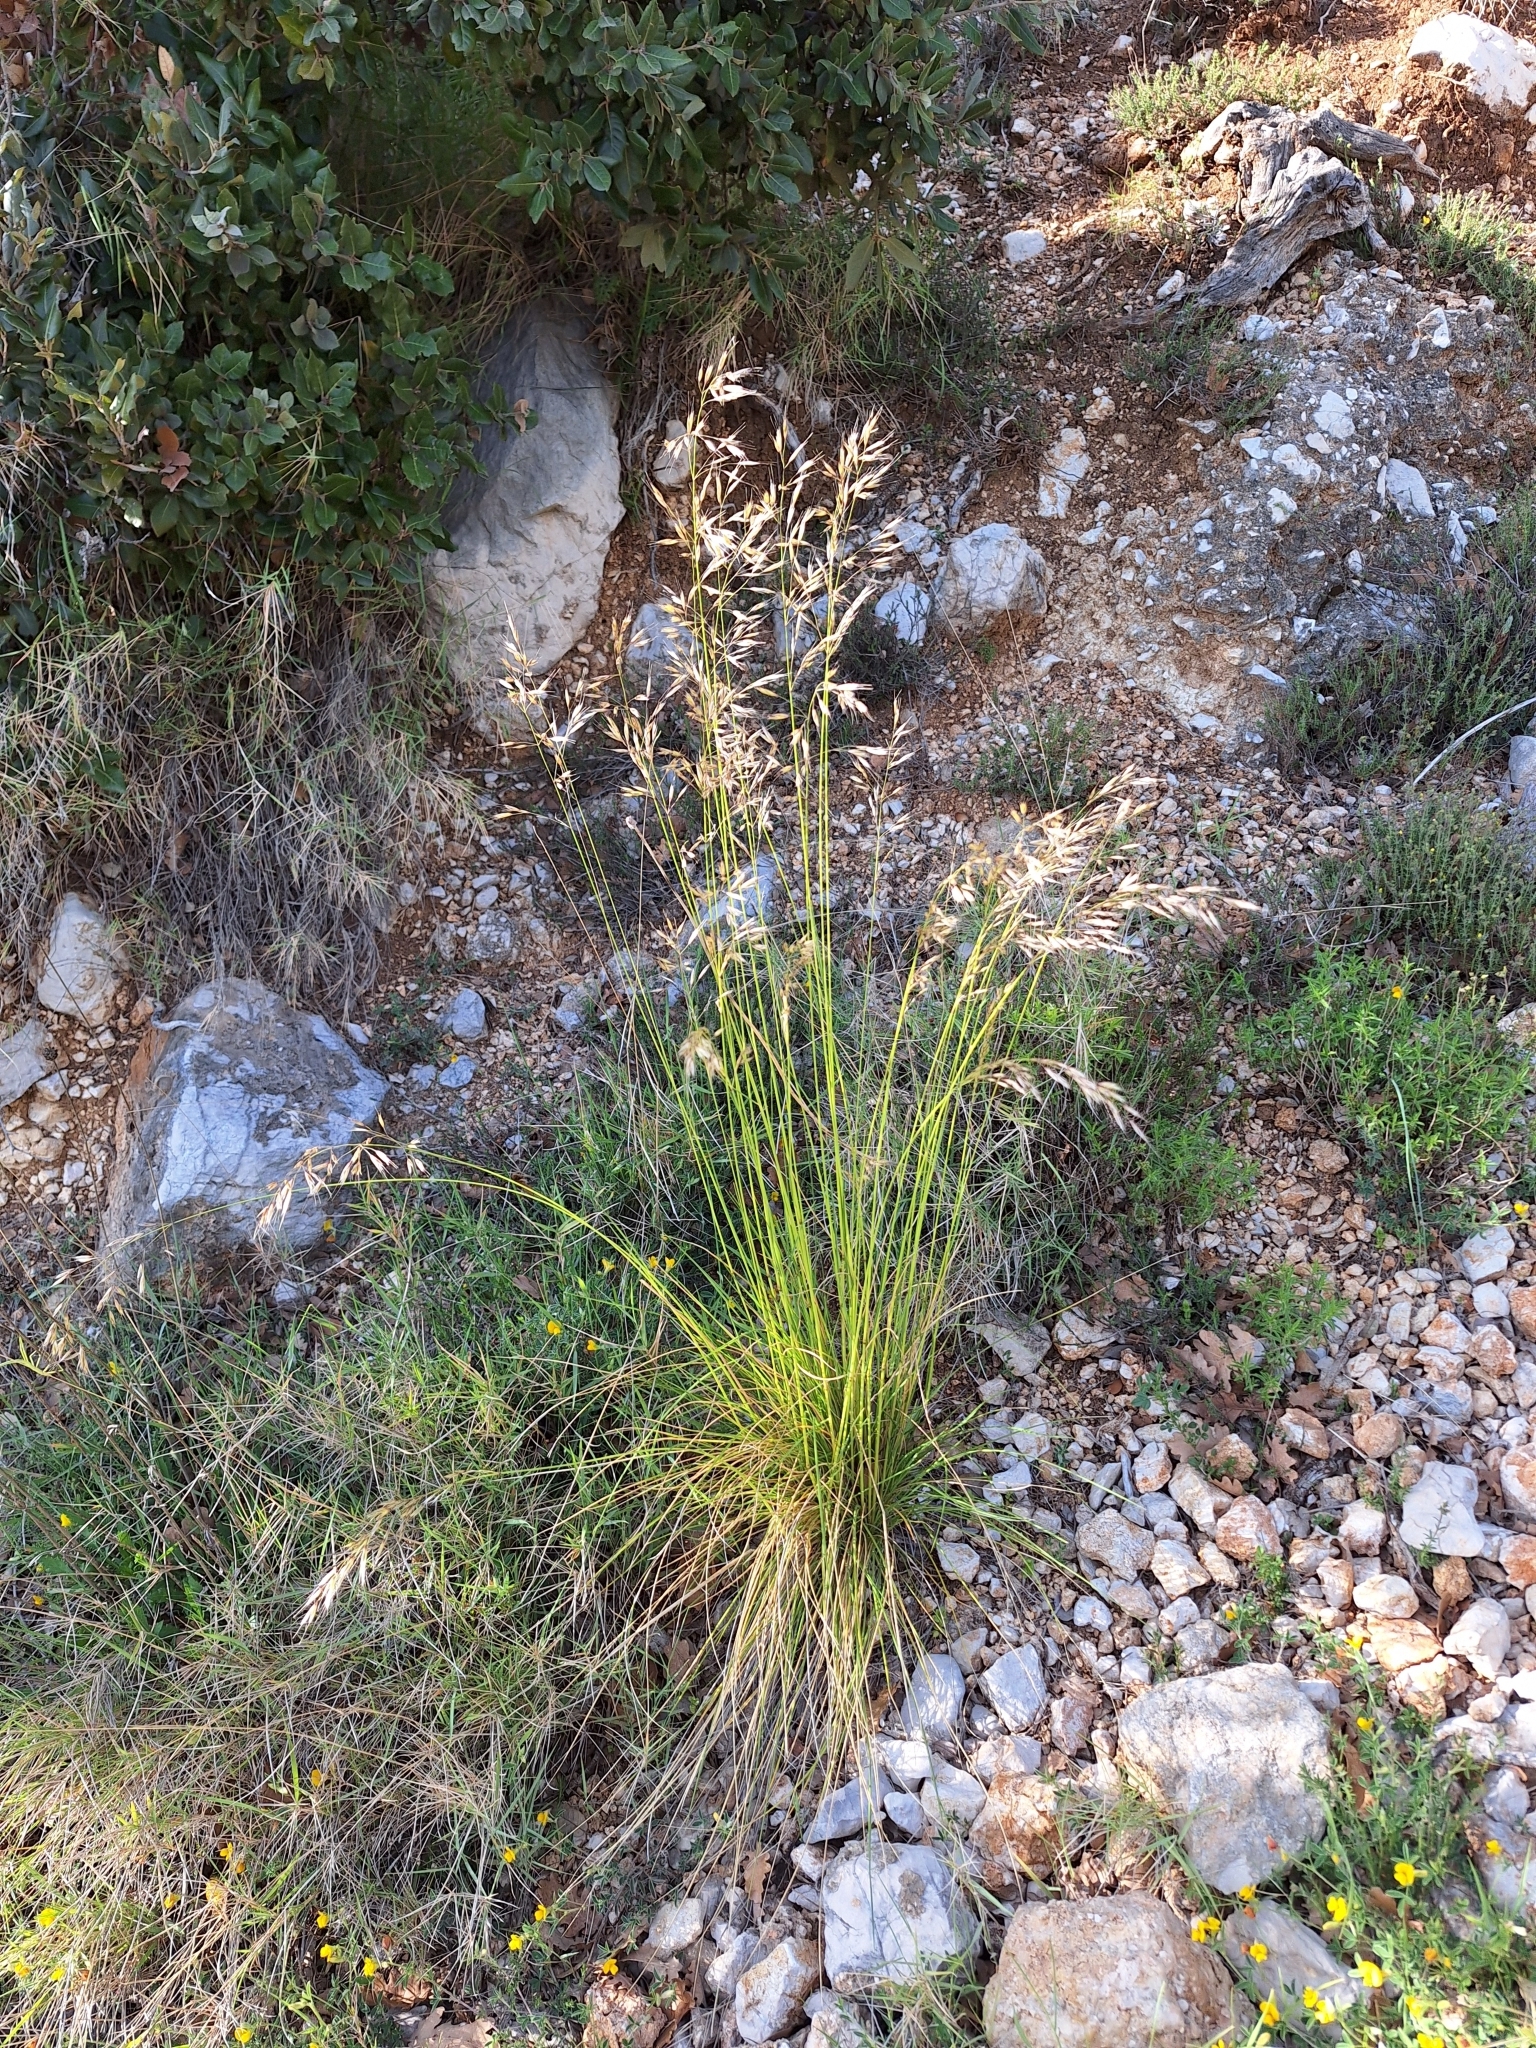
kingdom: Plantae
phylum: Tracheophyta
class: Liliopsida
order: Poales
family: Poaceae
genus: Helictotrichon
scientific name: Helictotrichon convolutum
